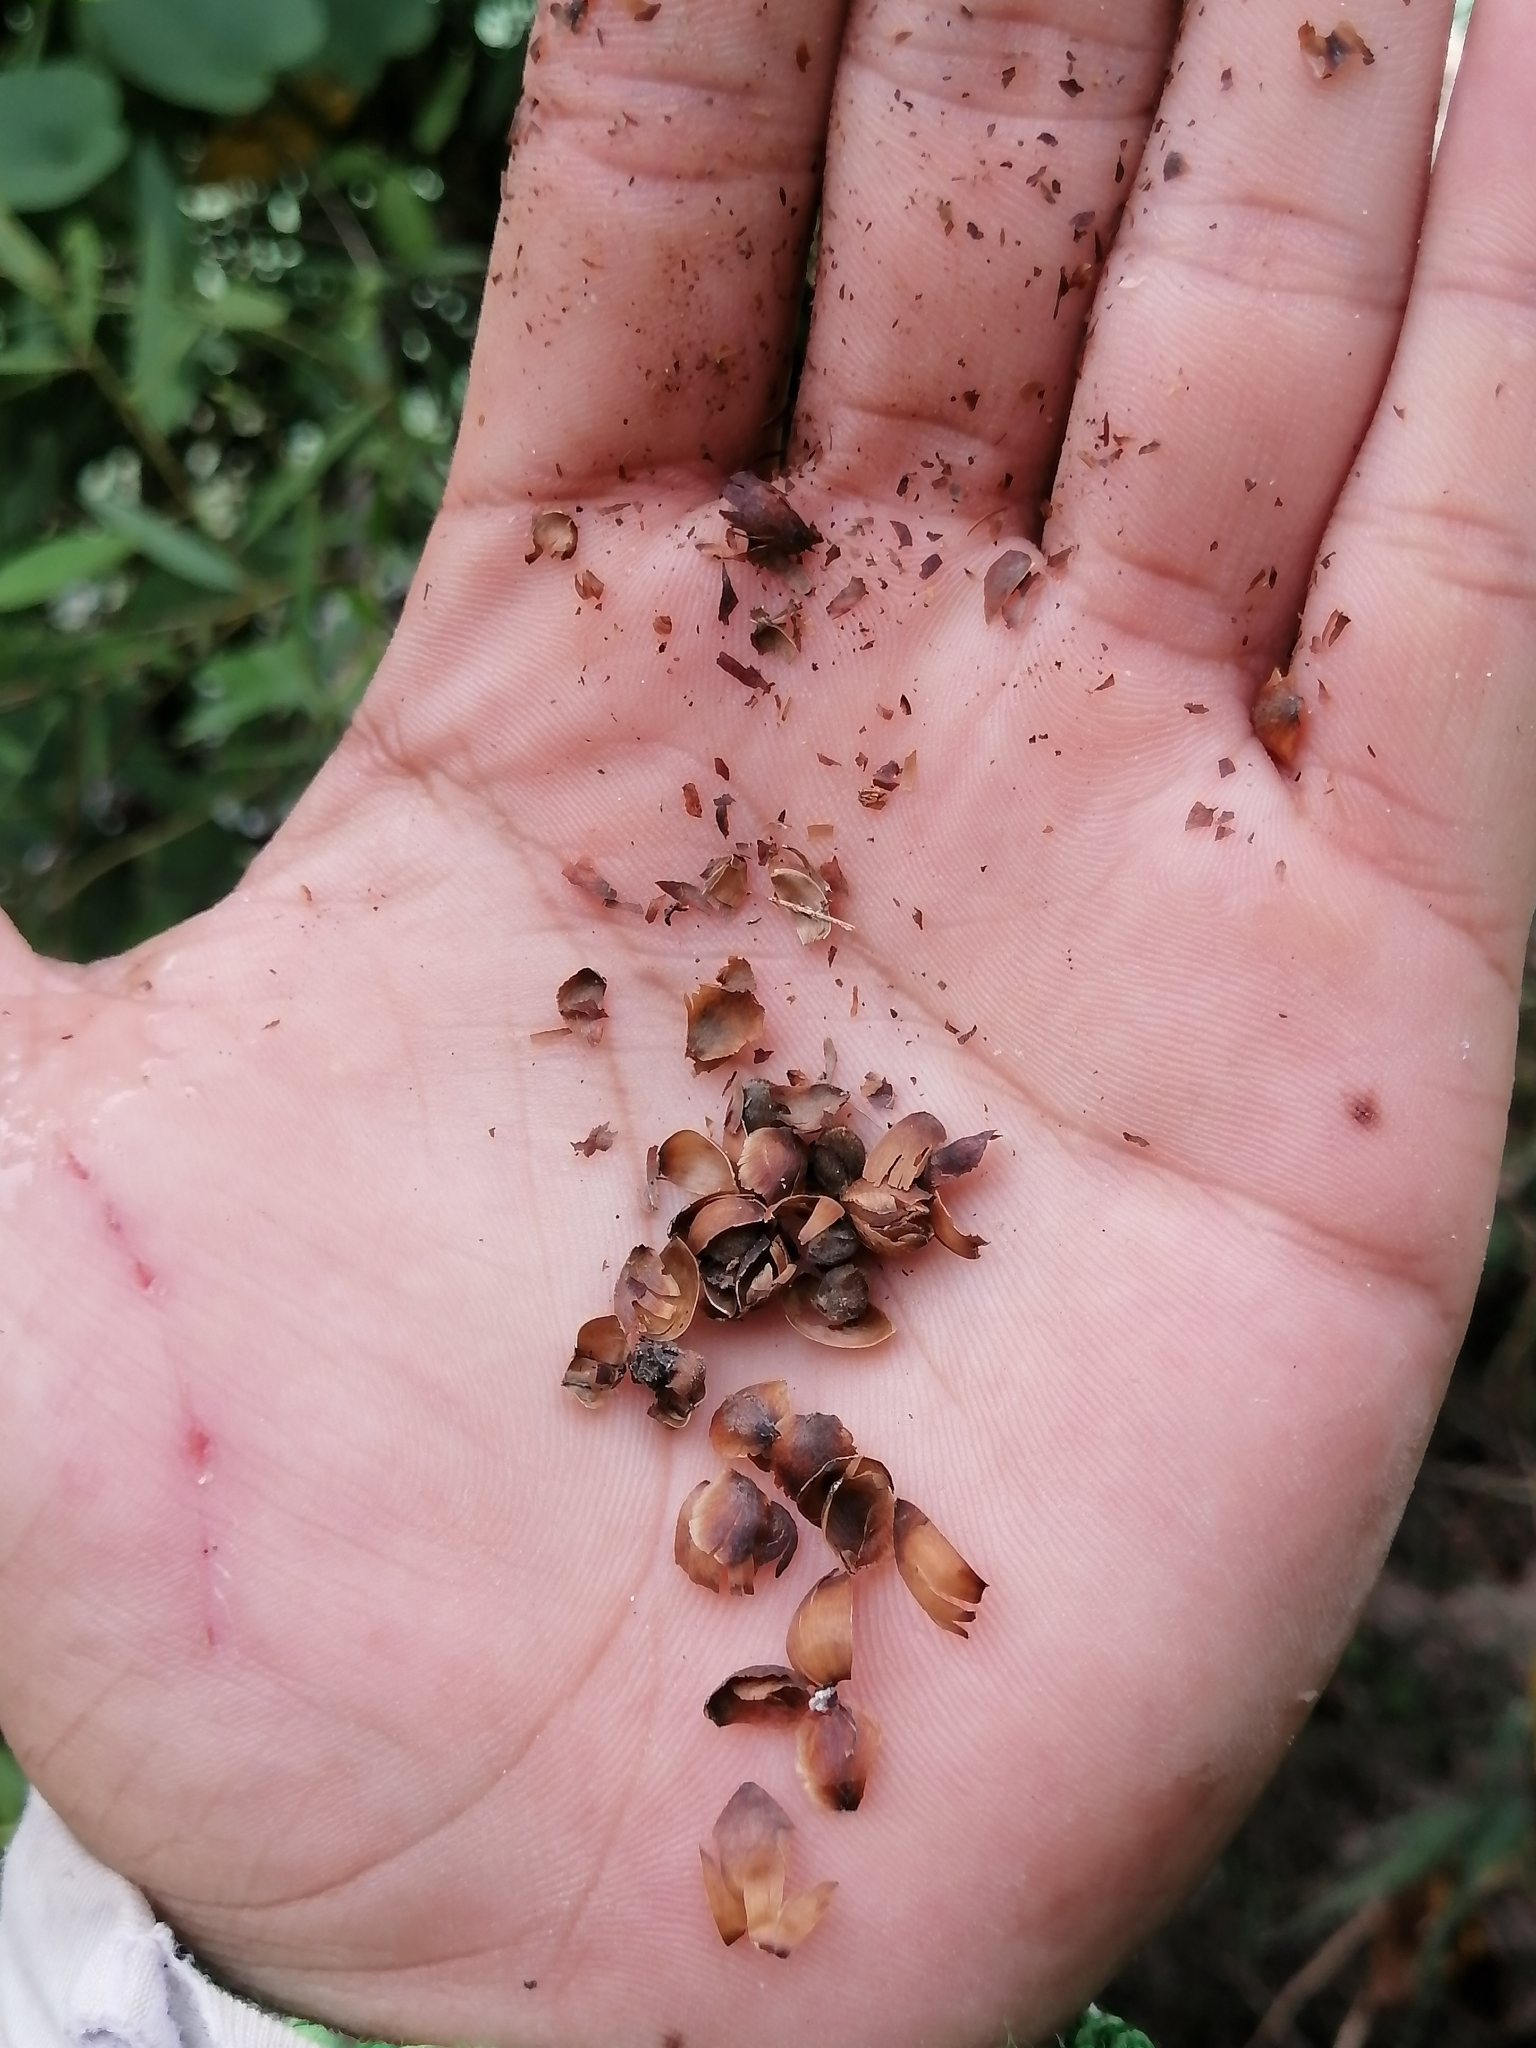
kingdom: Plantae
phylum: Tracheophyta
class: Magnoliopsida
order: Solanales
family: Convolvulaceae
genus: Camonea
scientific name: Camonea umbellata
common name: Hogvine
